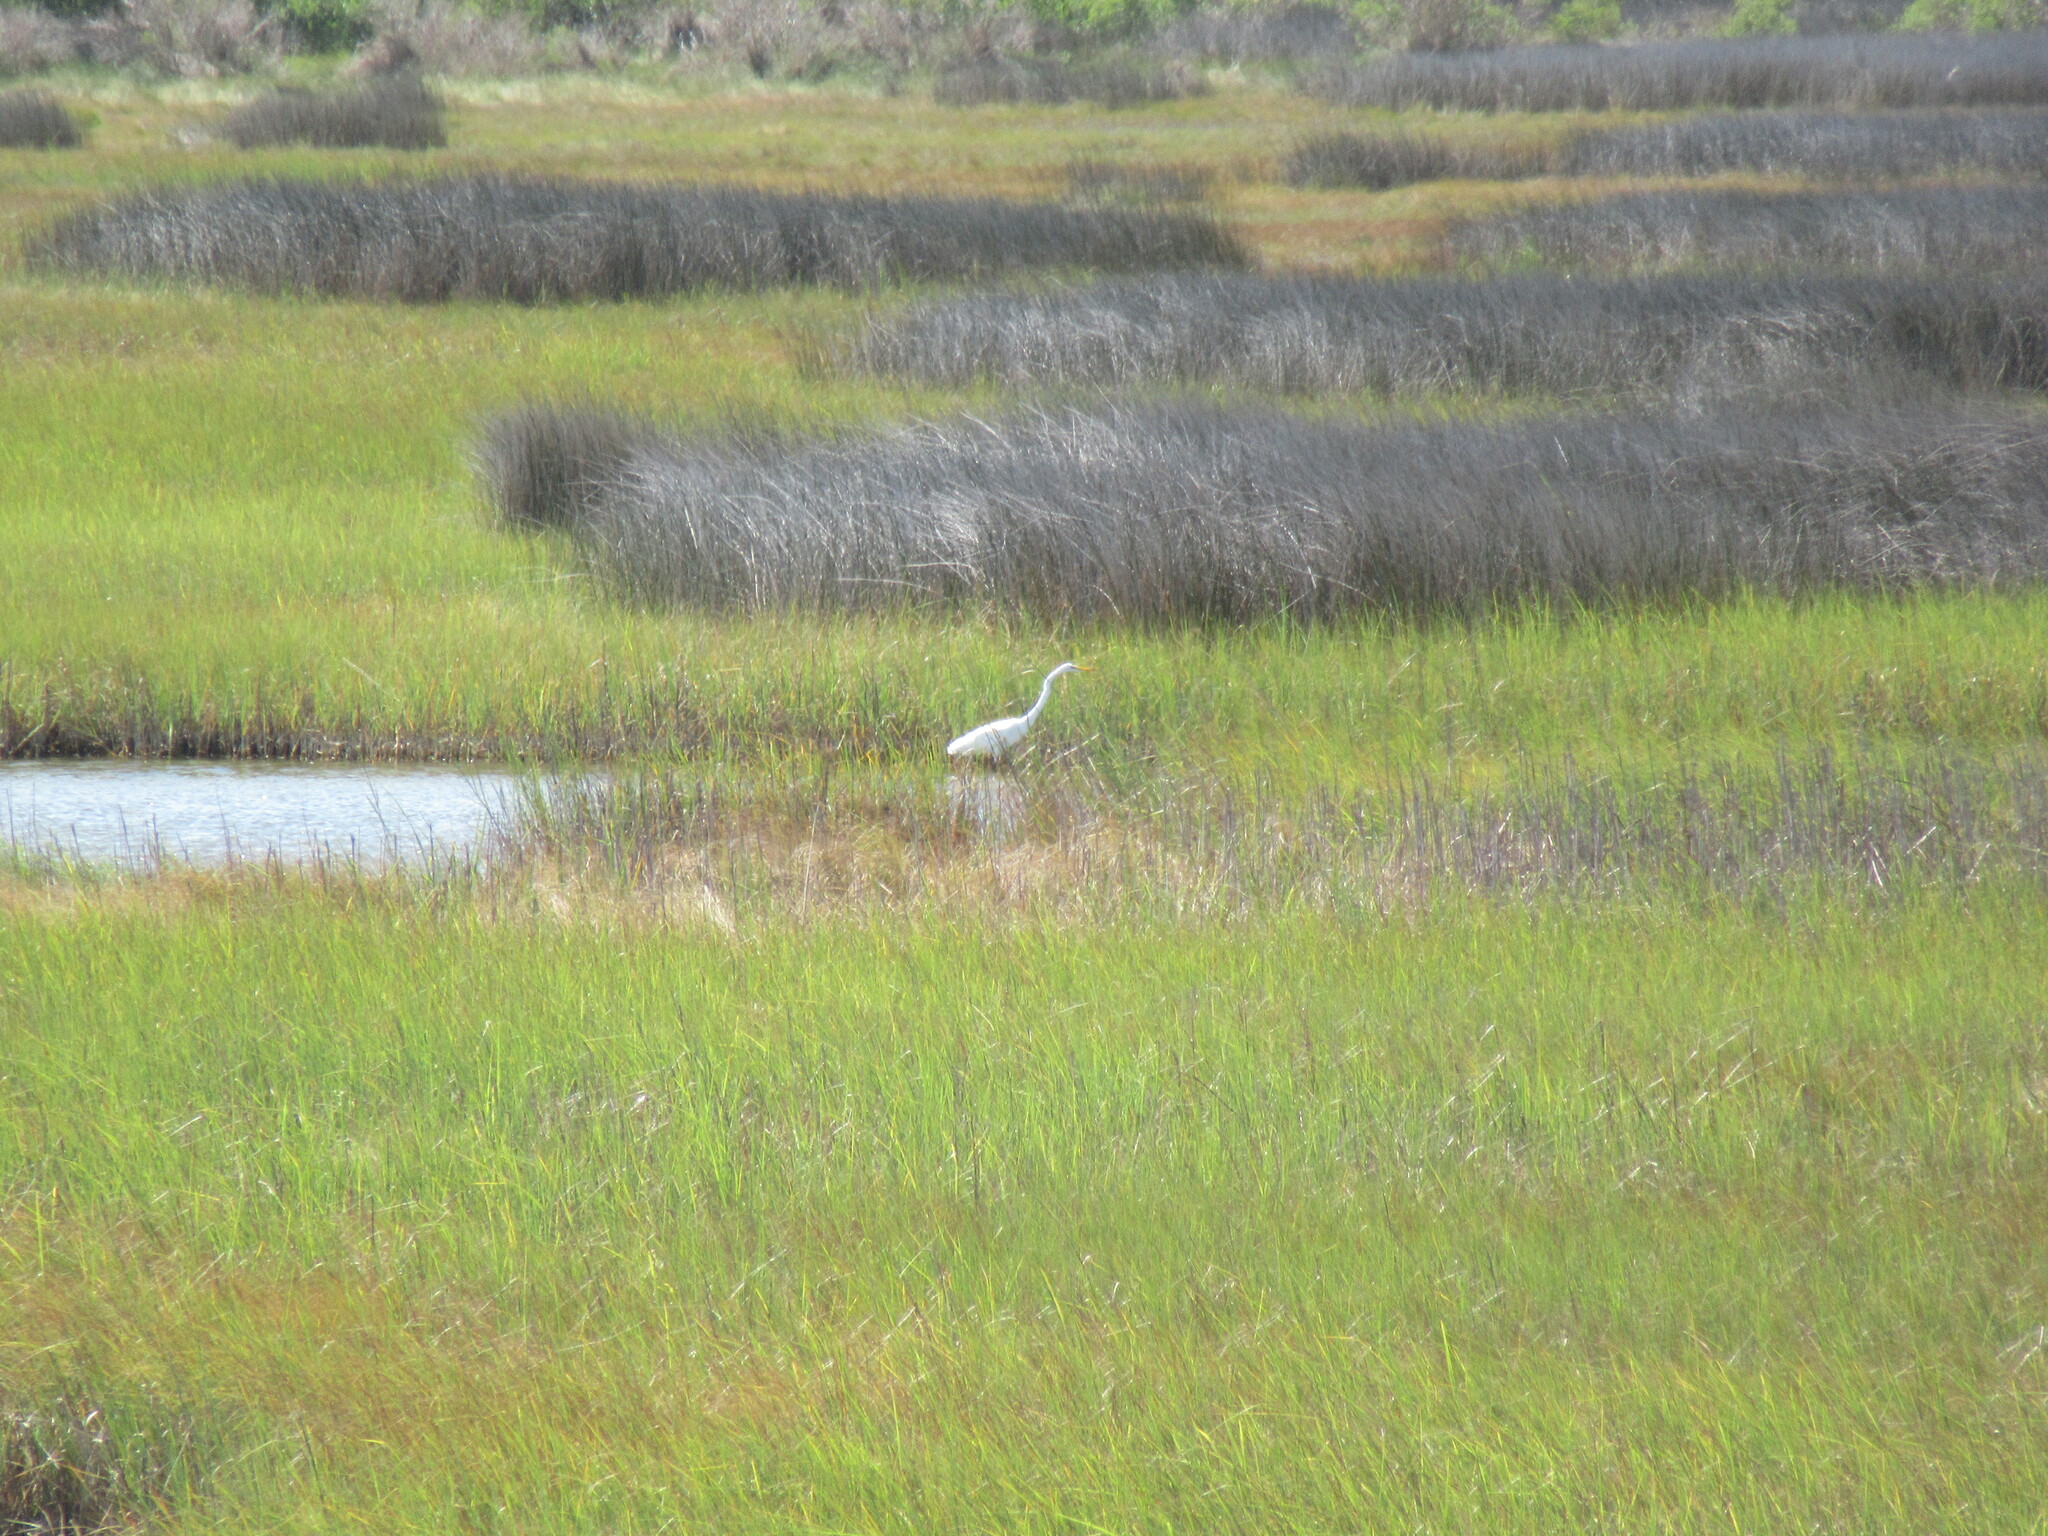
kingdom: Animalia
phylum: Chordata
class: Aves
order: Pelecaniformes
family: Ardeidae
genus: Ardea
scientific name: Ardea alba
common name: Great egret
